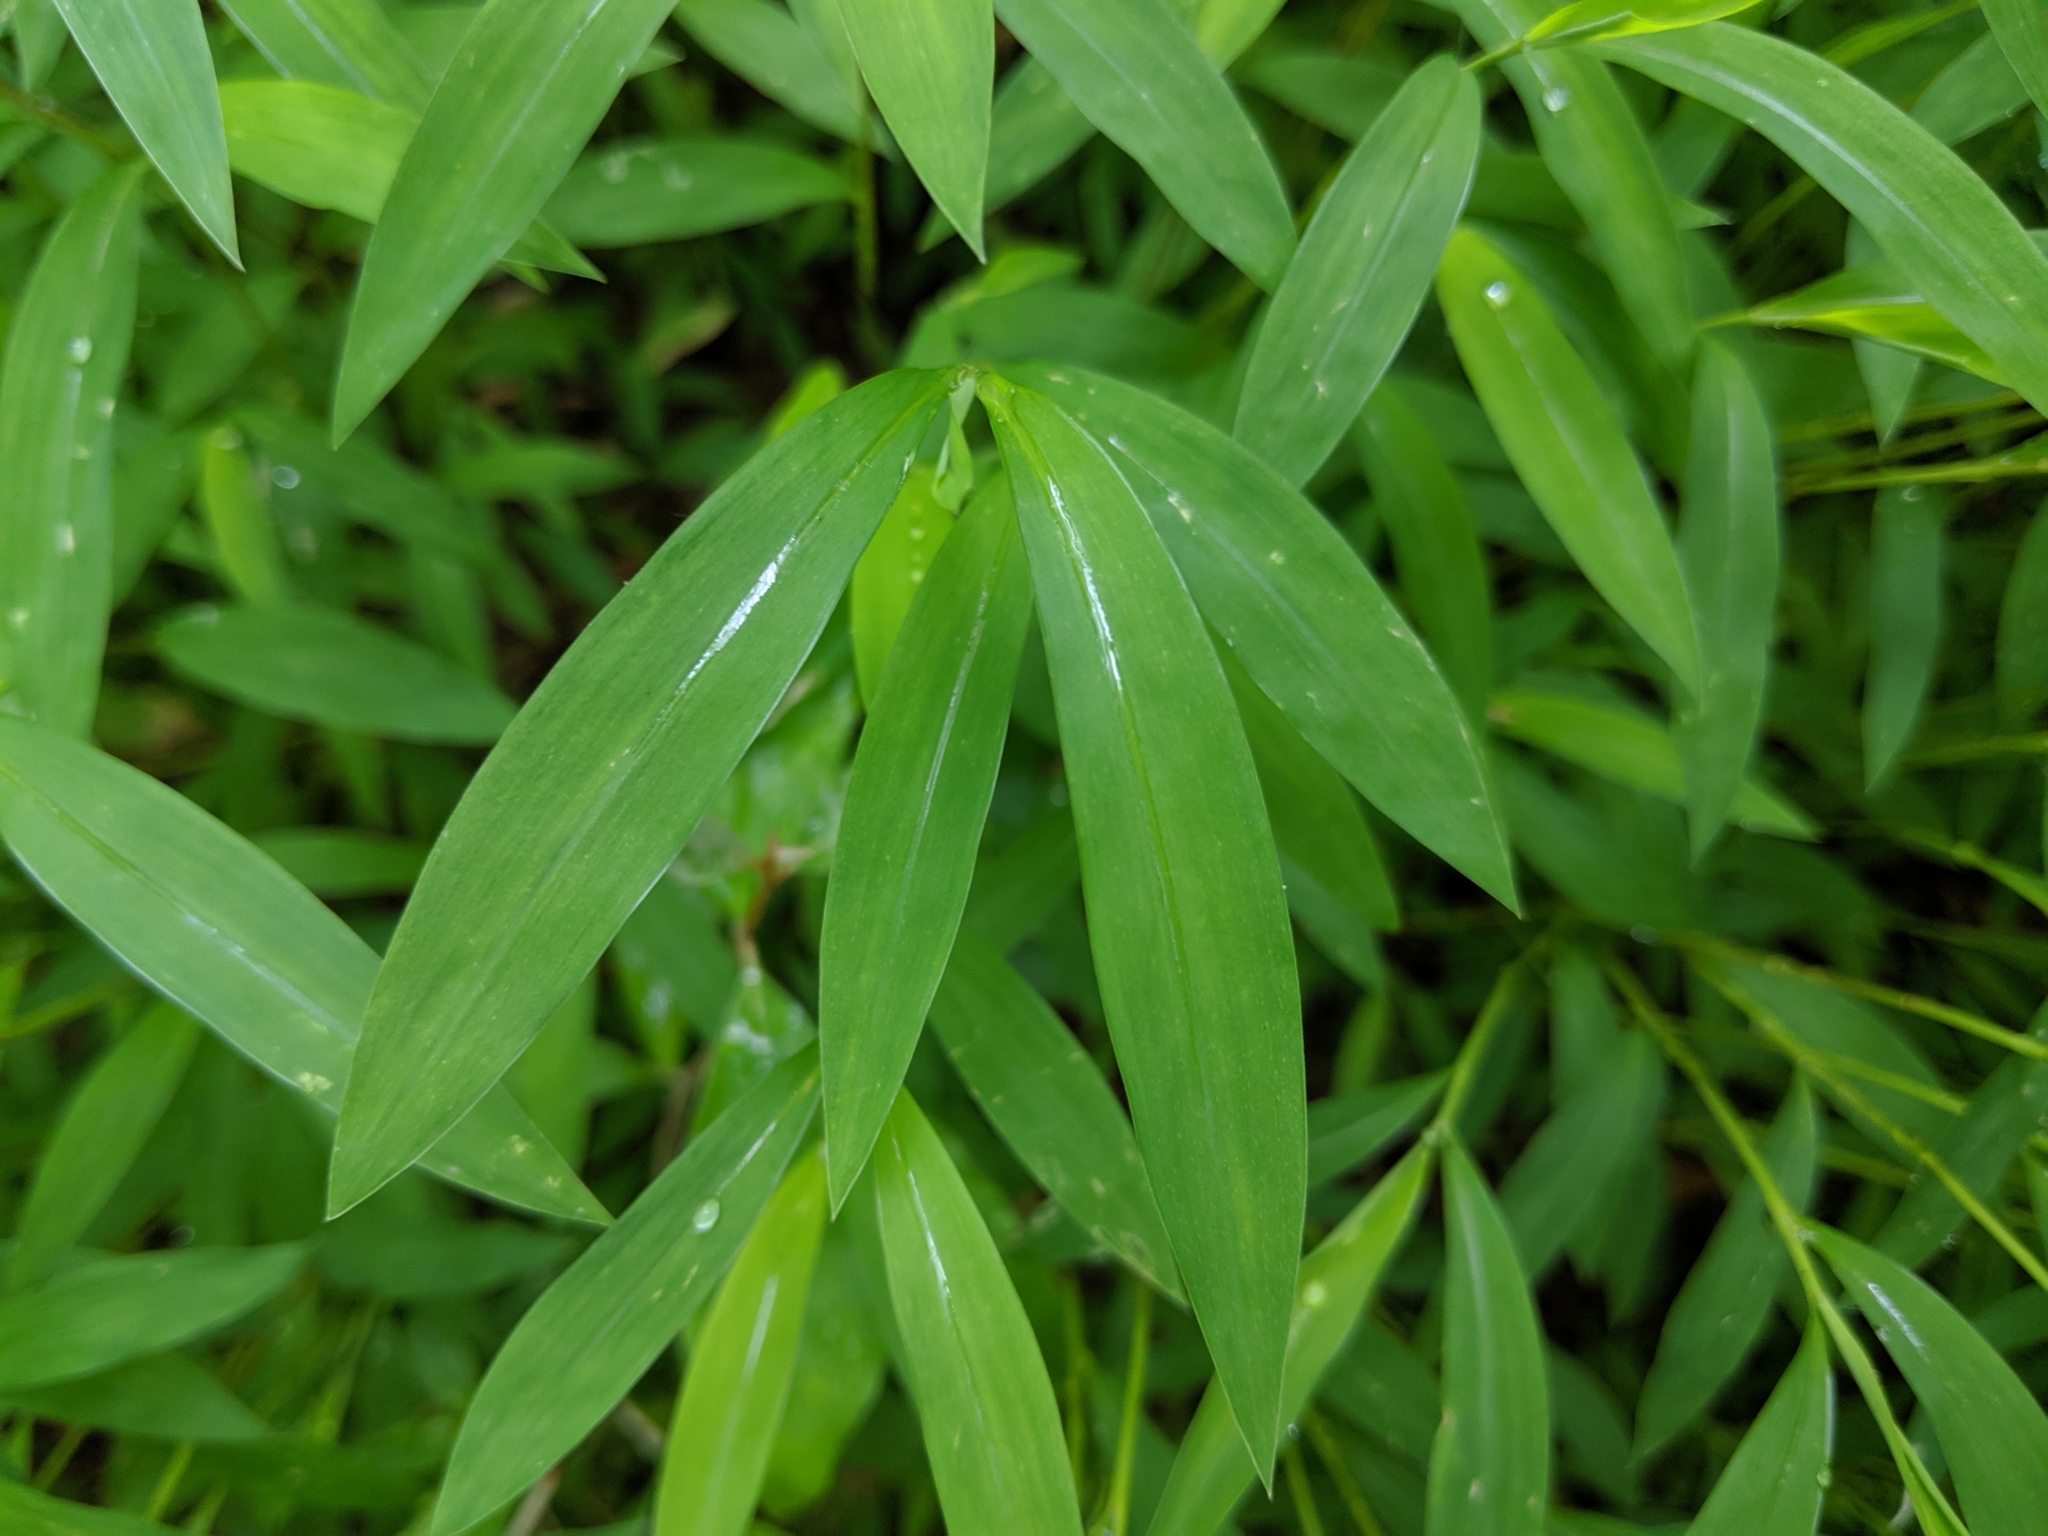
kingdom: Plantae
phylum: Tracheophyta
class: Liliopsida
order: Poales
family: Poaceae
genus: Microstegium
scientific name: Microstegium vimineum
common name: Japanese stiltgrass
